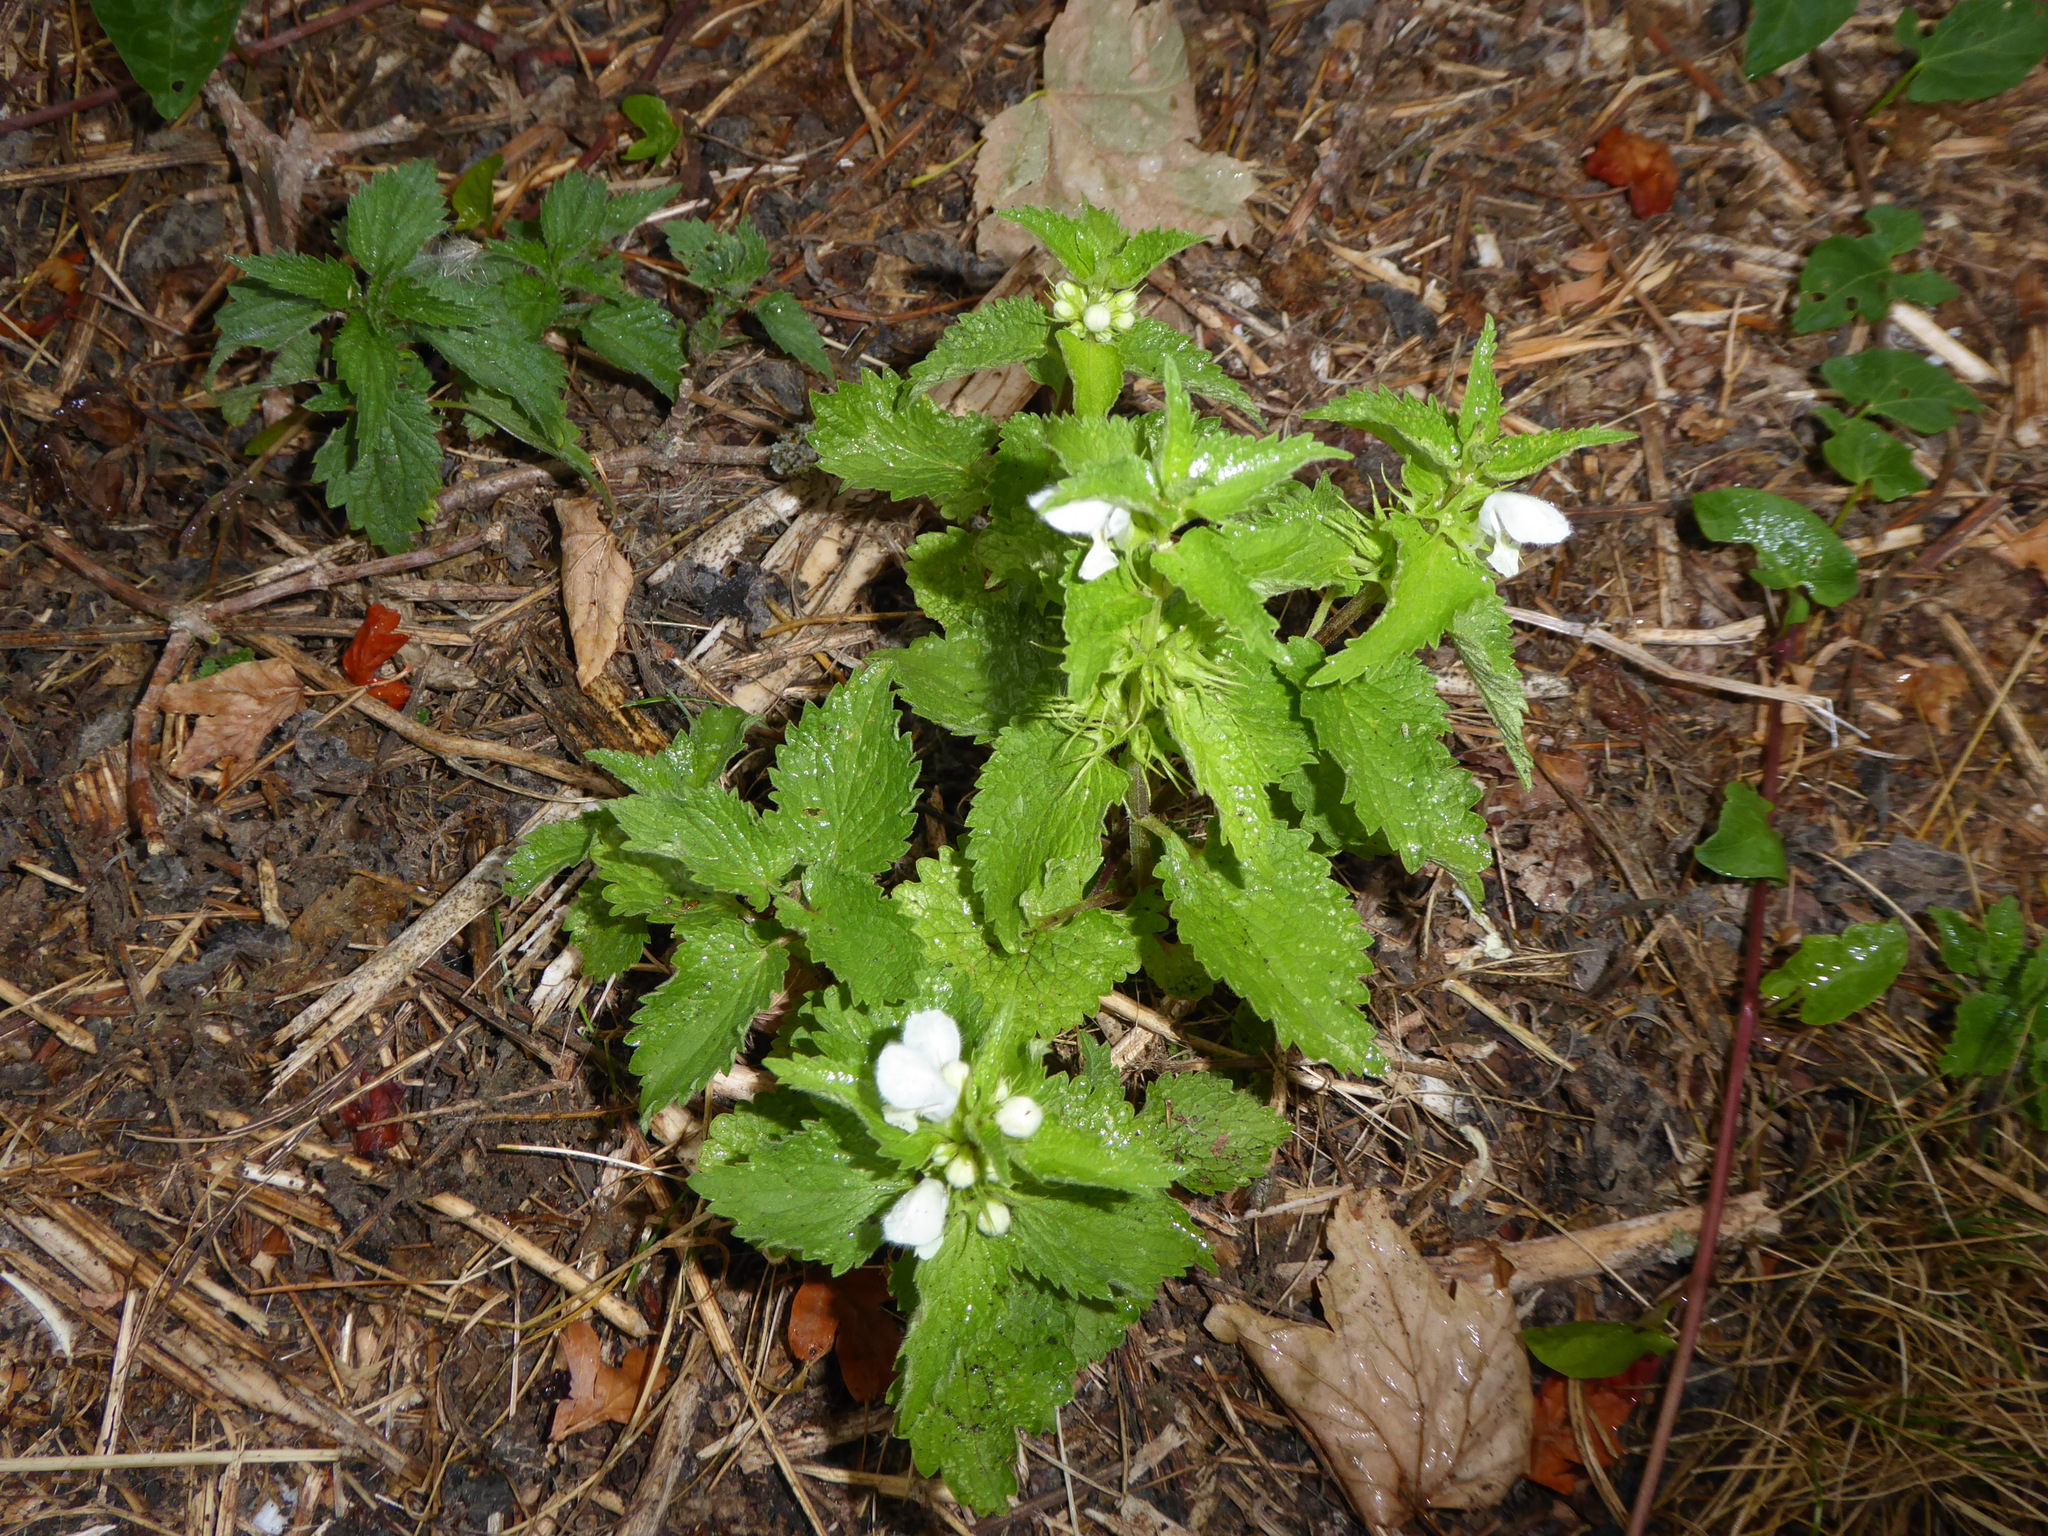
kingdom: Plantae
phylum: Tracheophyta
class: Magnoliopsida
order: Lamiales
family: Lamiaceae
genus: Lamium
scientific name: Lamium album
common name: White dead-nettle
